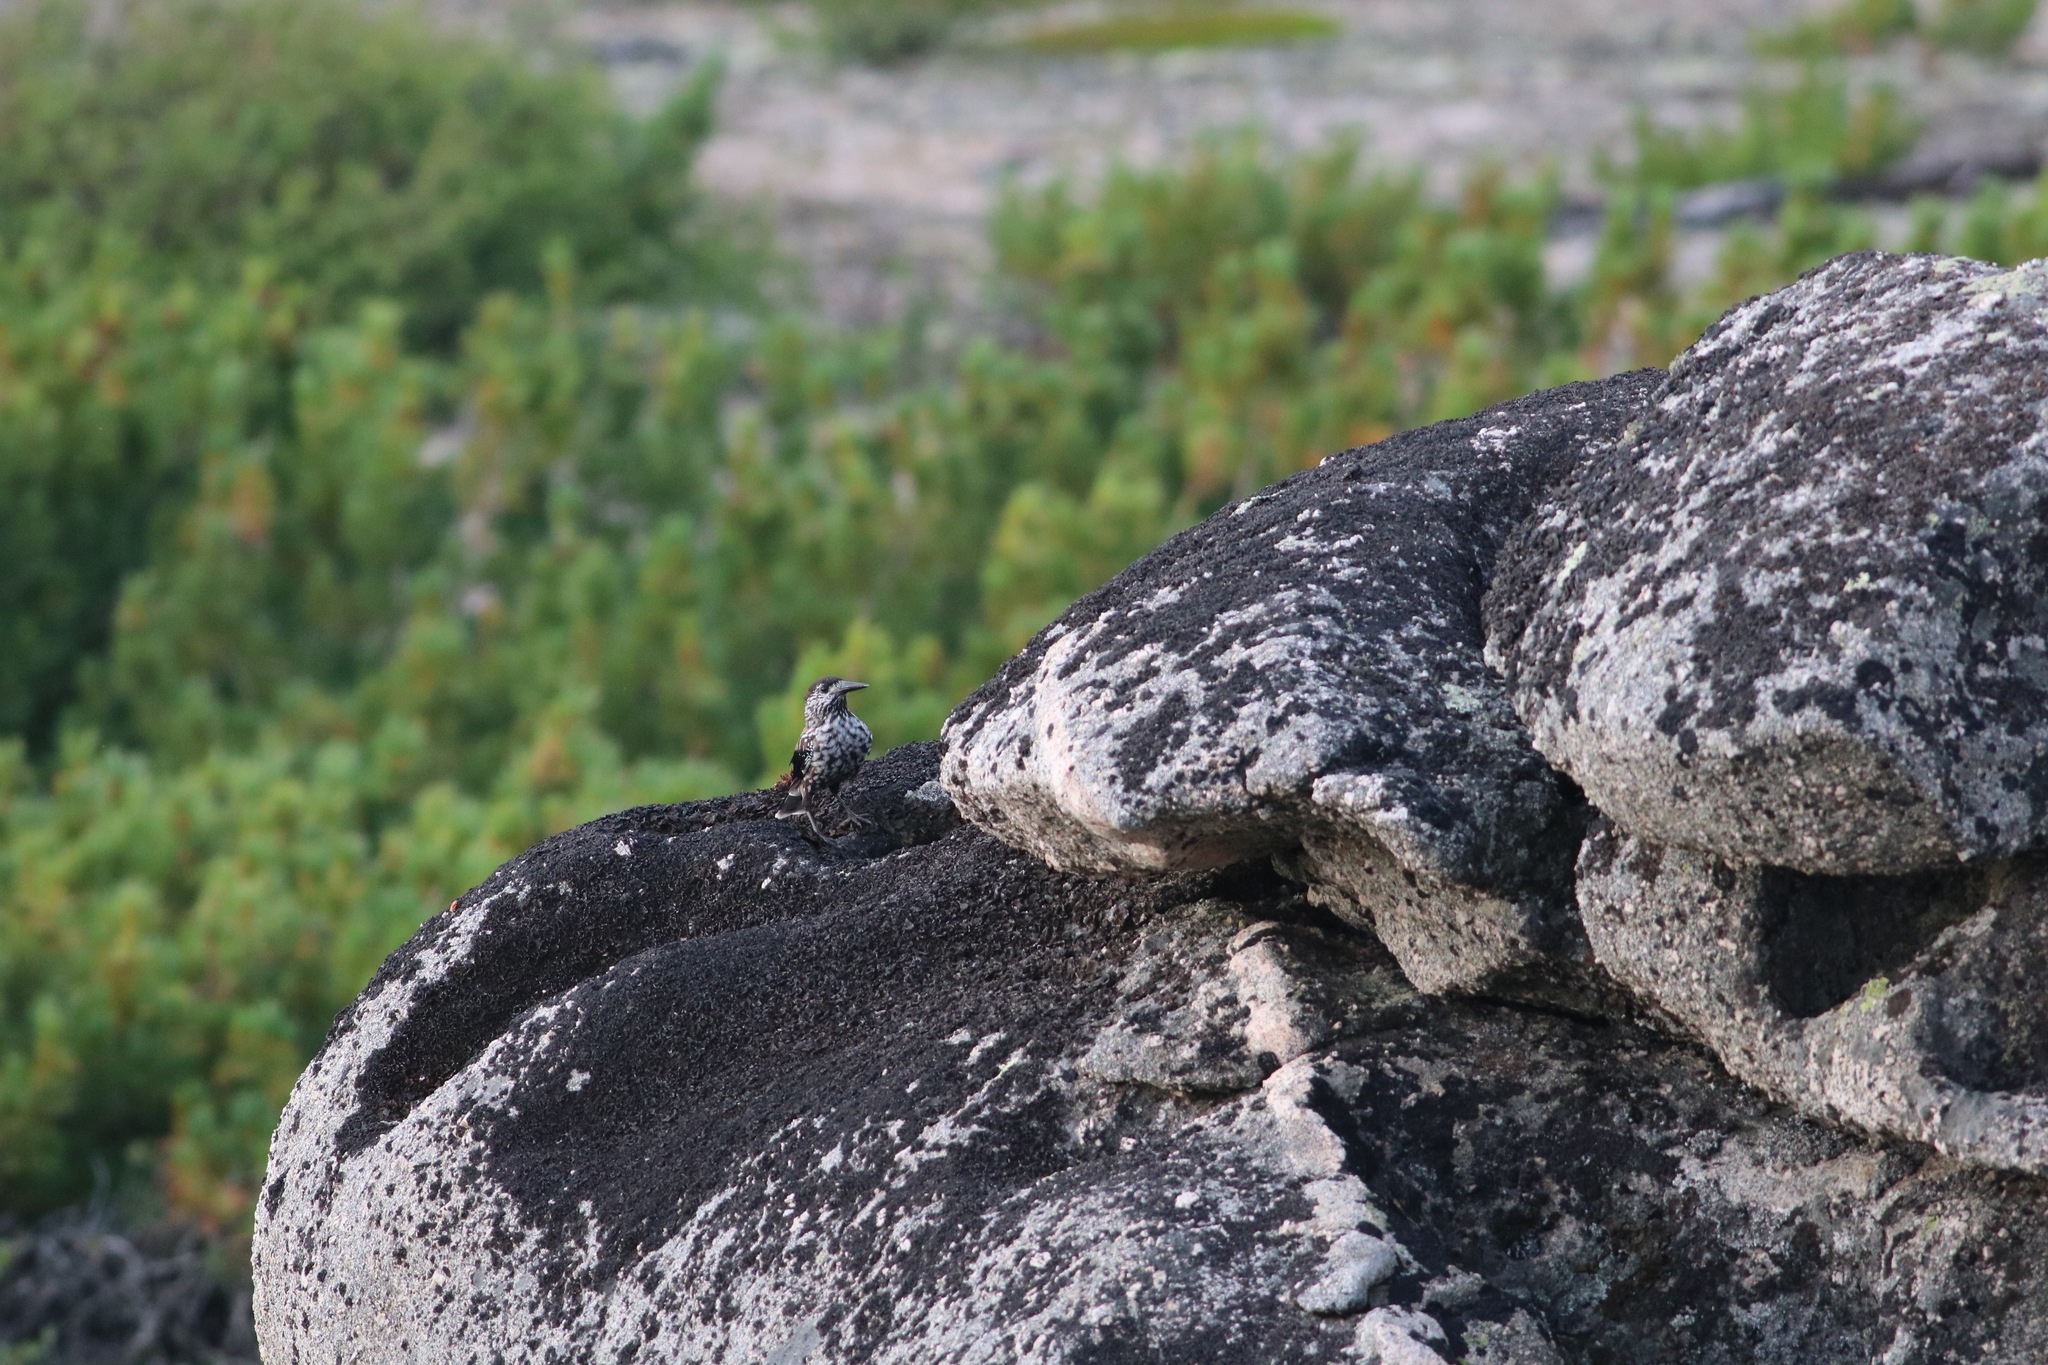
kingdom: Animalia
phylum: Chordata
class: Aves
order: Passeriformes
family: Corvidae
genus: Nucifraga
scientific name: Nucifraga caryocatactes
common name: Spotted nutcracker
